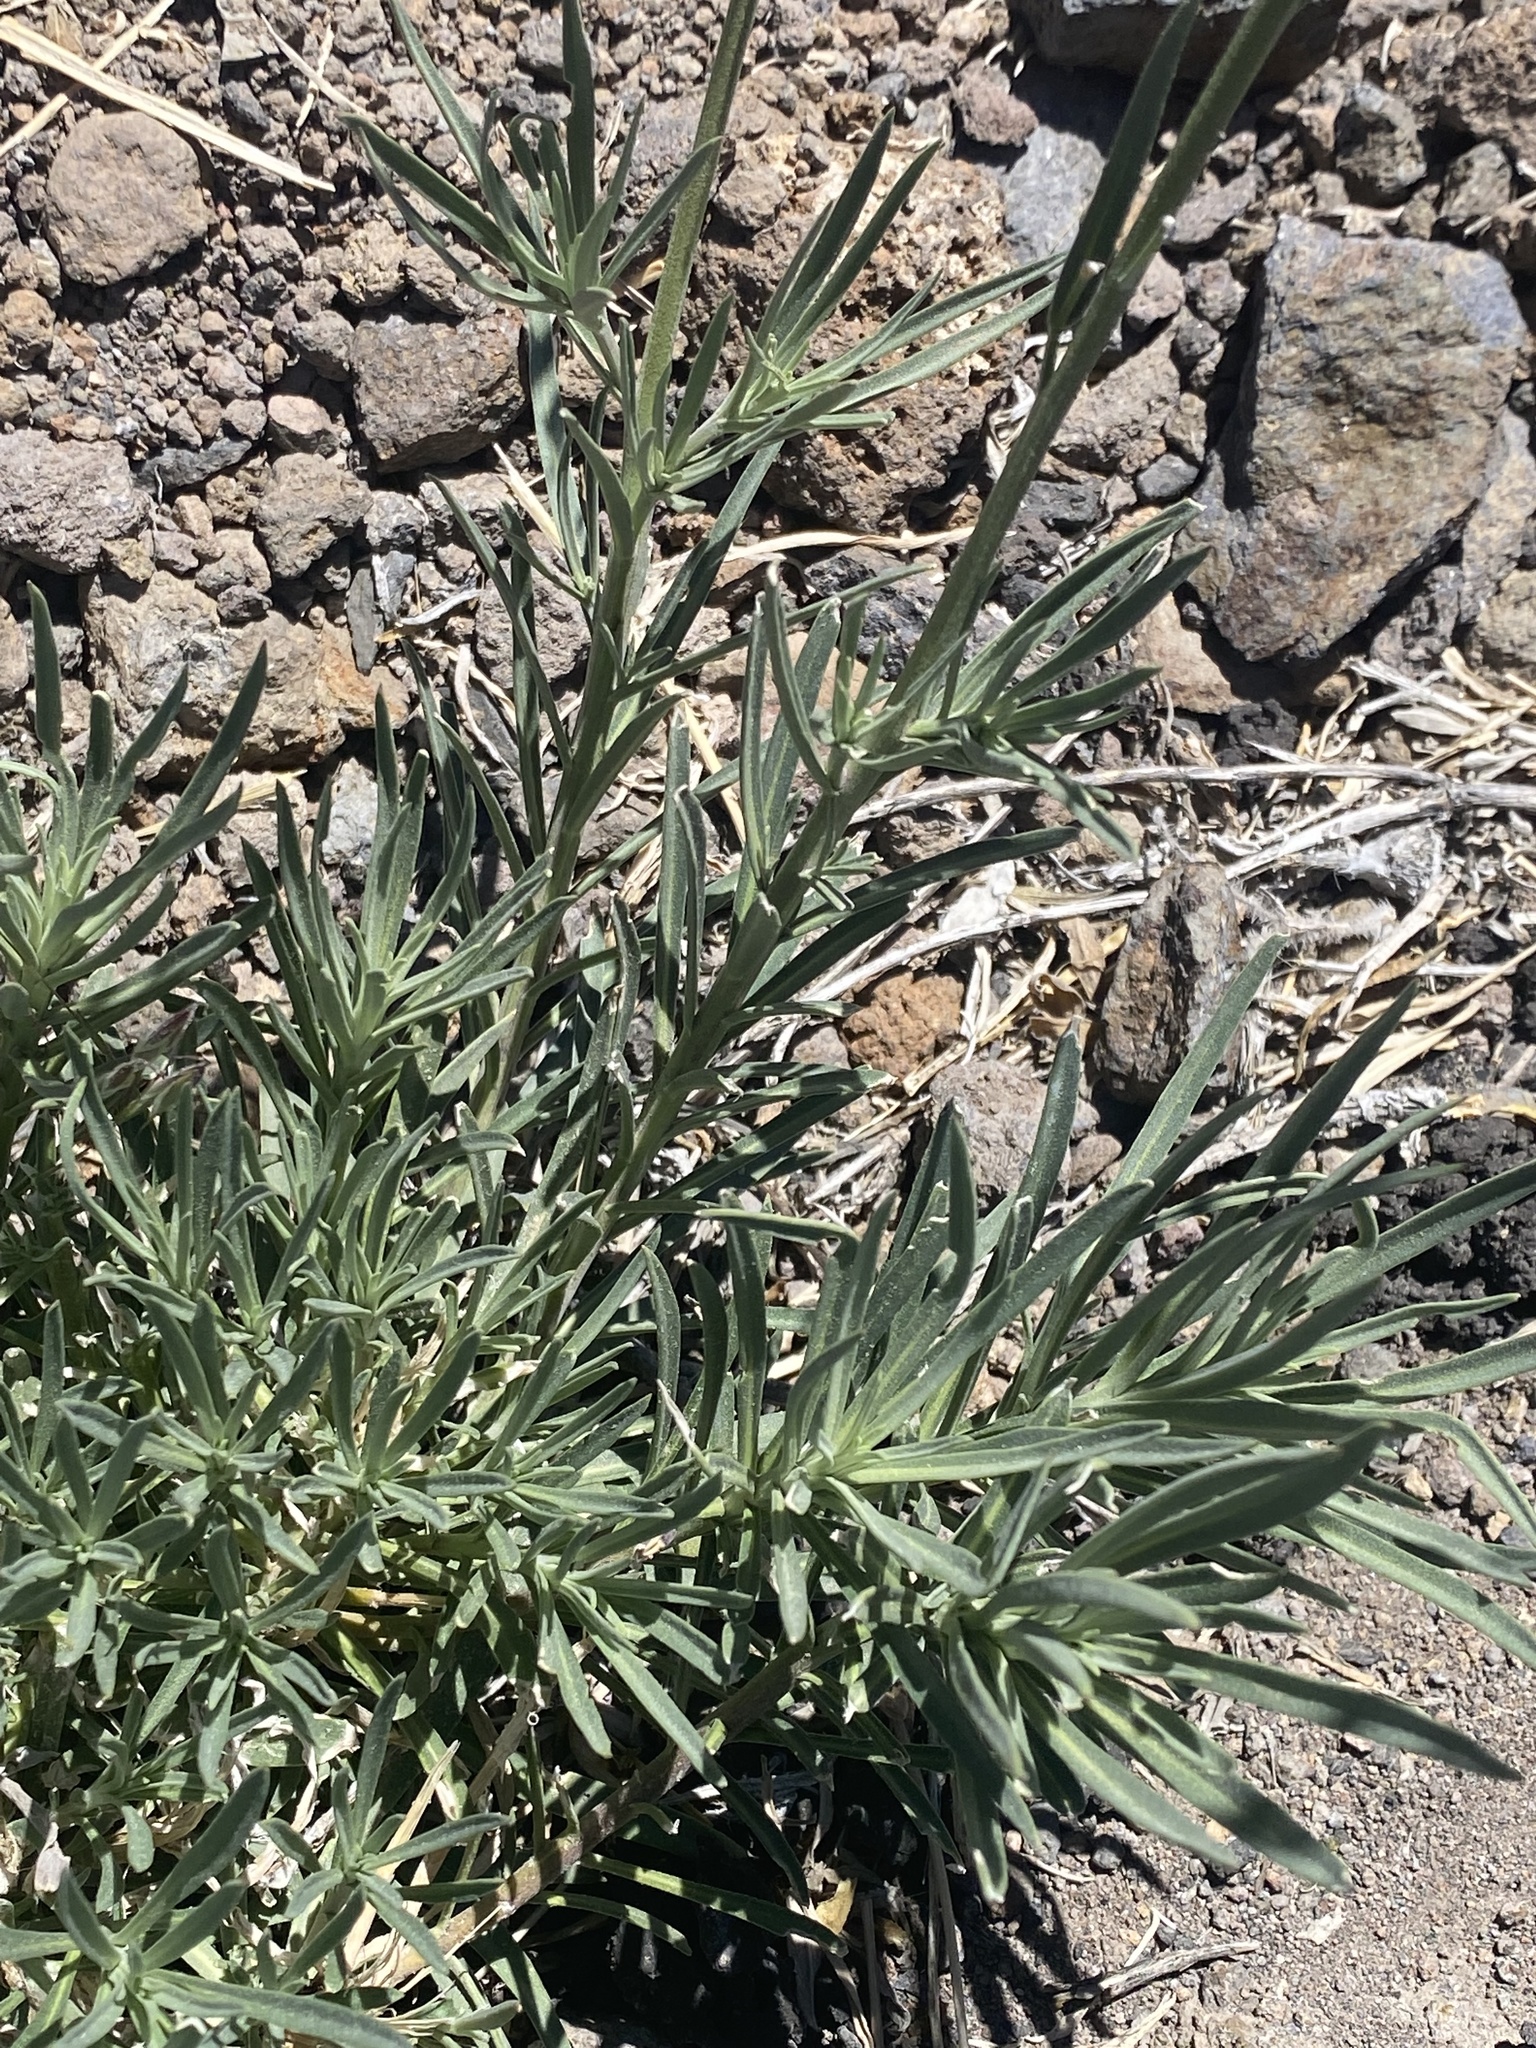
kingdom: Plantae
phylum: Tracheophyta
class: Magnoliopsida
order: Brassicales
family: Brassicaceae
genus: Erysimum
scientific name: Erysimum scoparium
